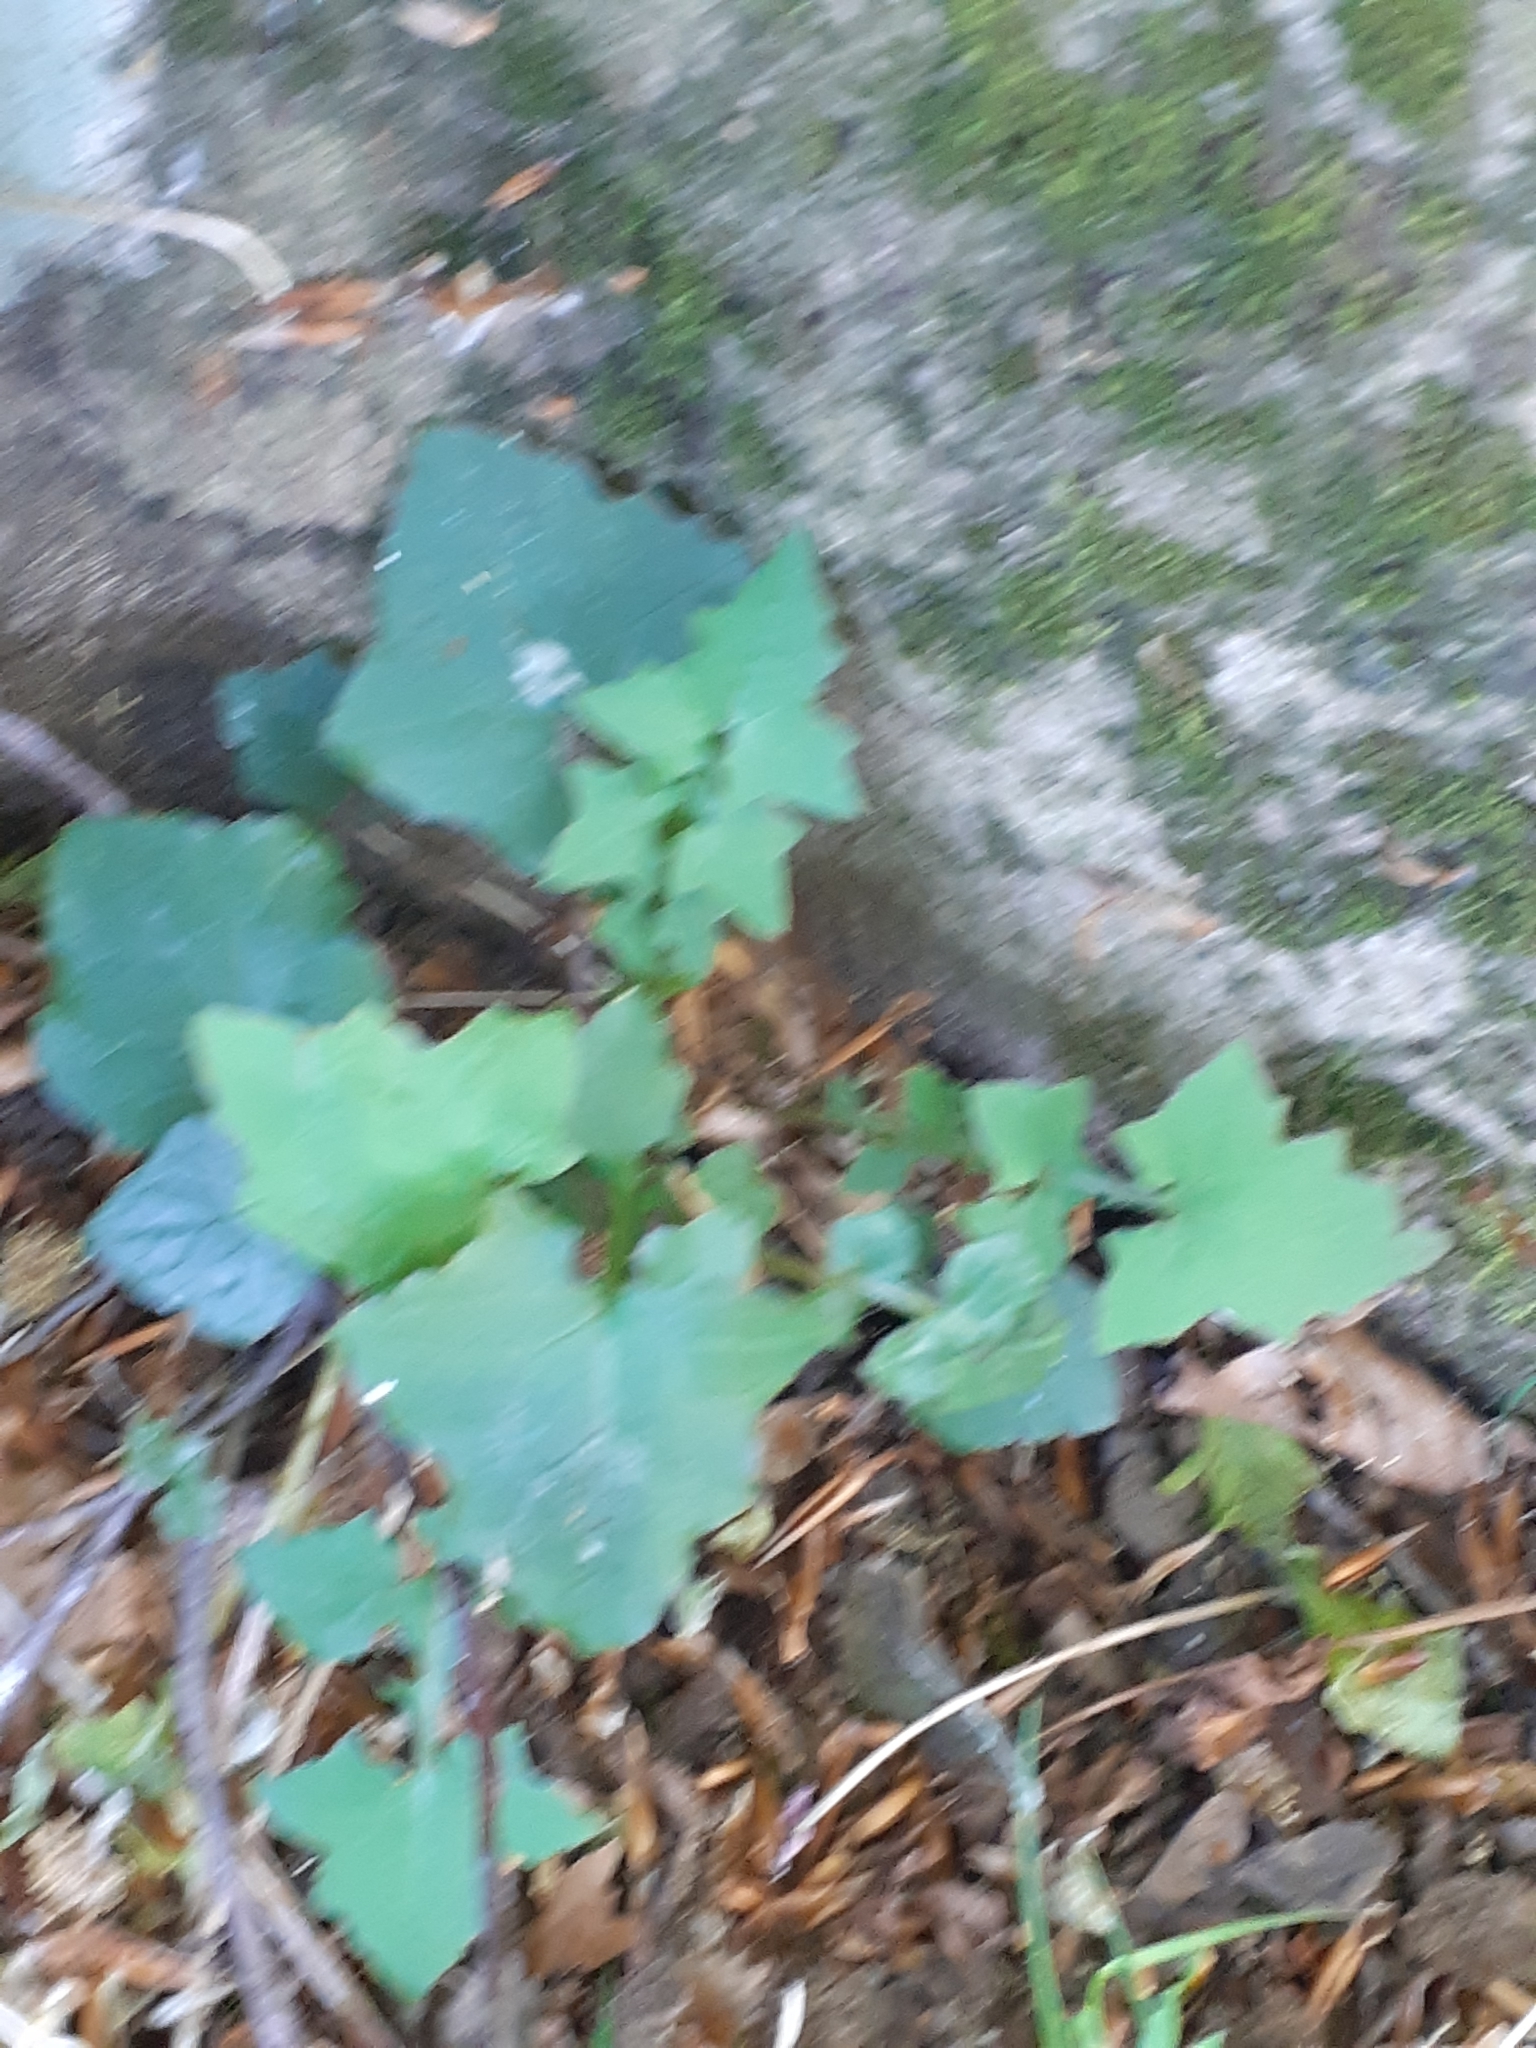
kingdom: Plantae
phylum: Tracheophyta
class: Magnoliopsida
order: Asterales
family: Asteraceae
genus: Mycelis
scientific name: Mycelis muralis
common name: Wall lettuce
